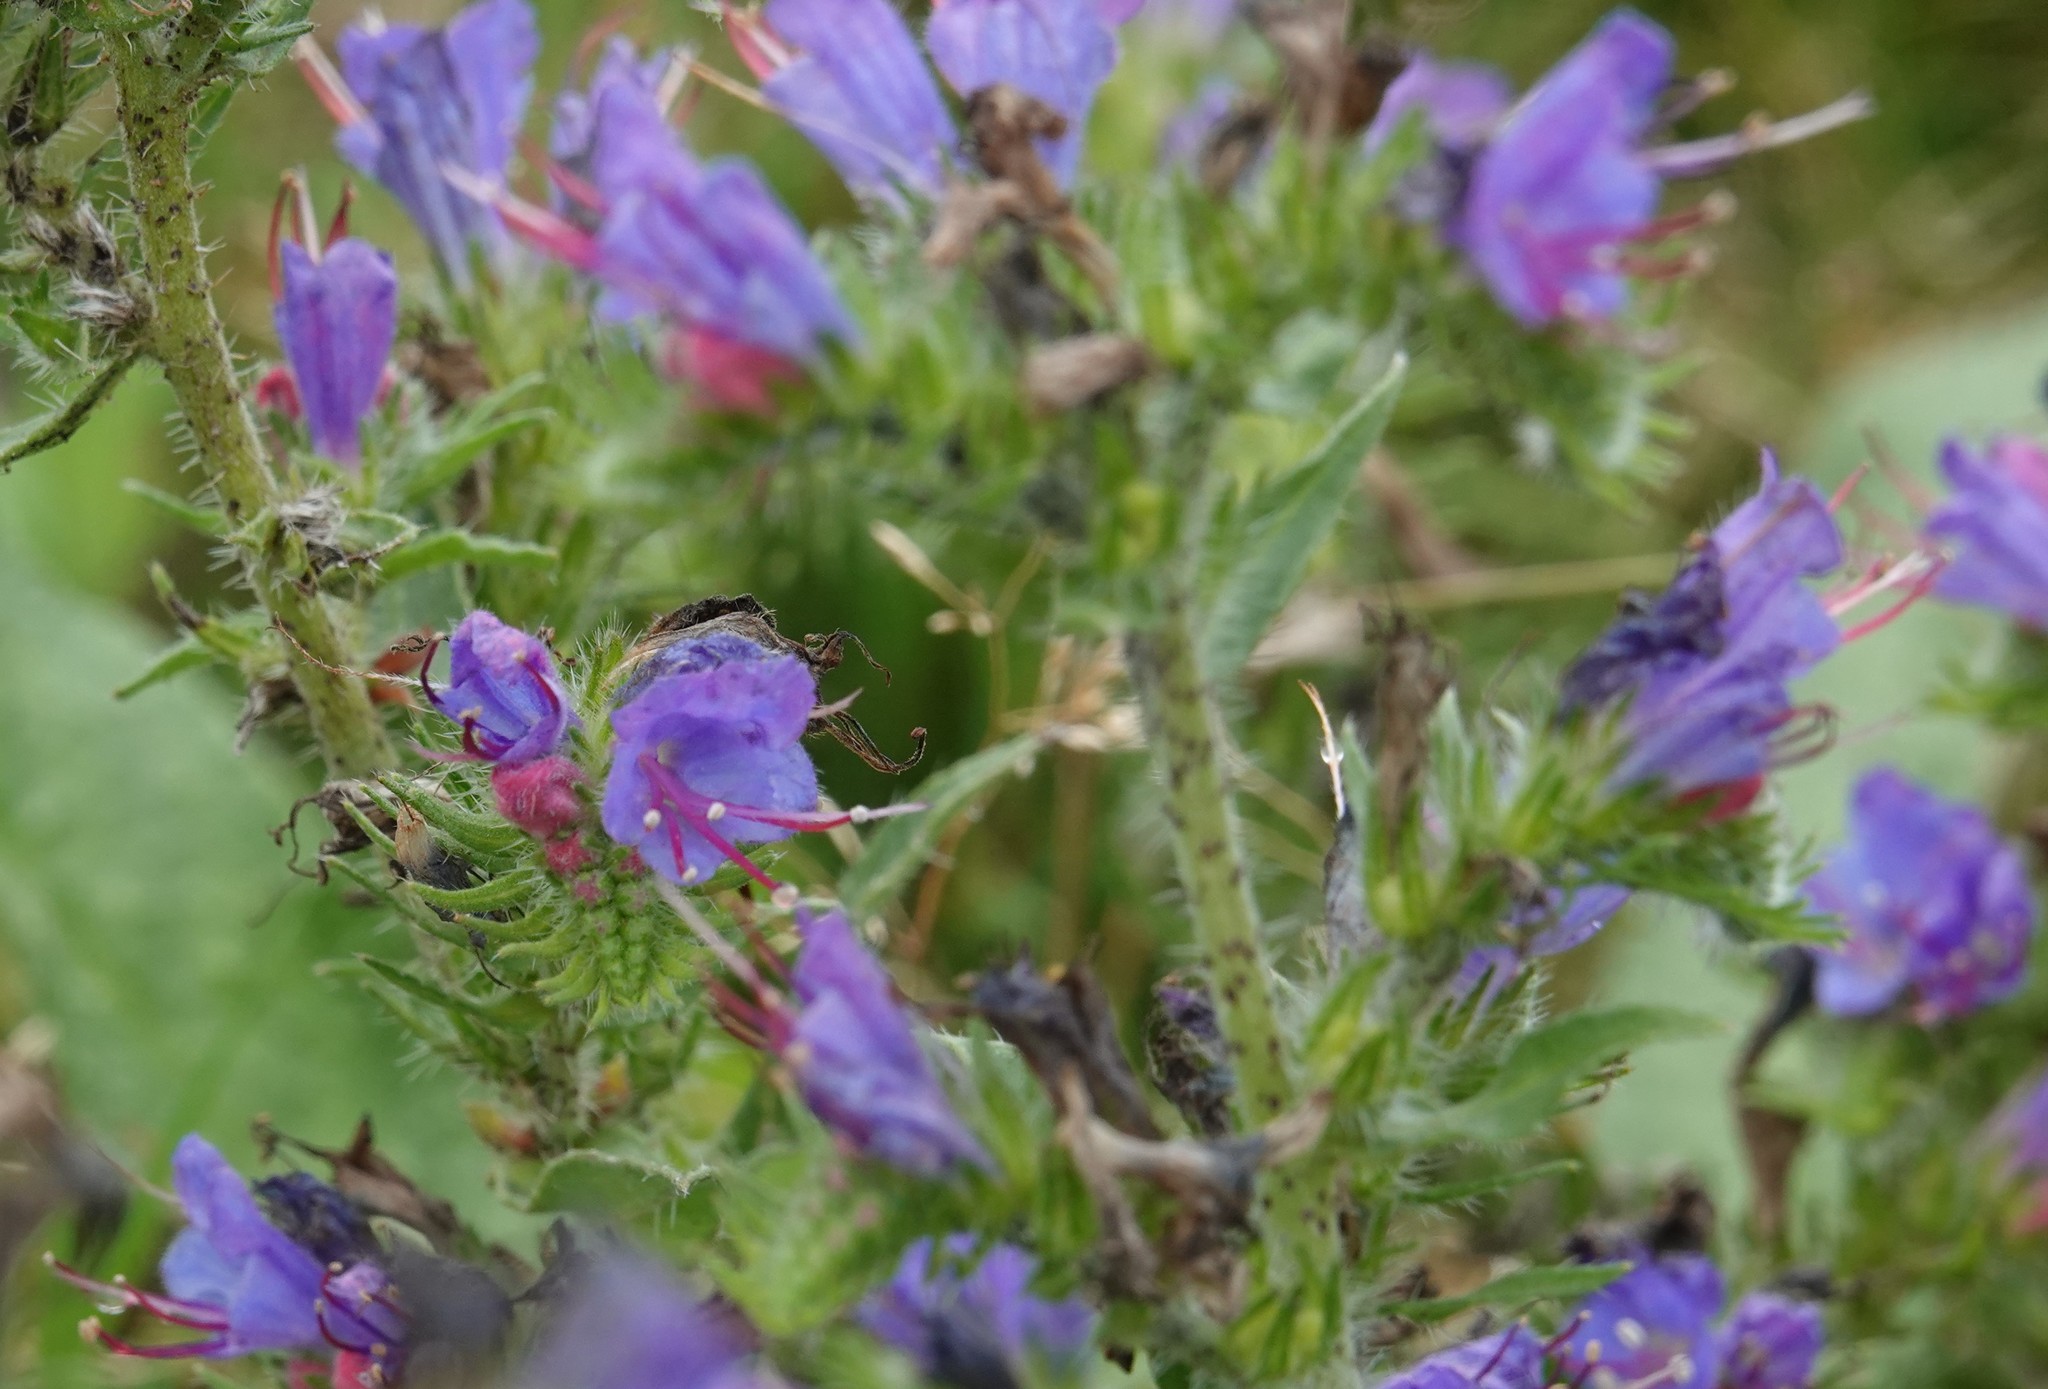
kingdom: Plantae
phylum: Tracheophyta
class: Magnoliopsida
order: Boraginales
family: Boraginaceae
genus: Echium
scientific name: Echium vulgare
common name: Common viper's bugloss
